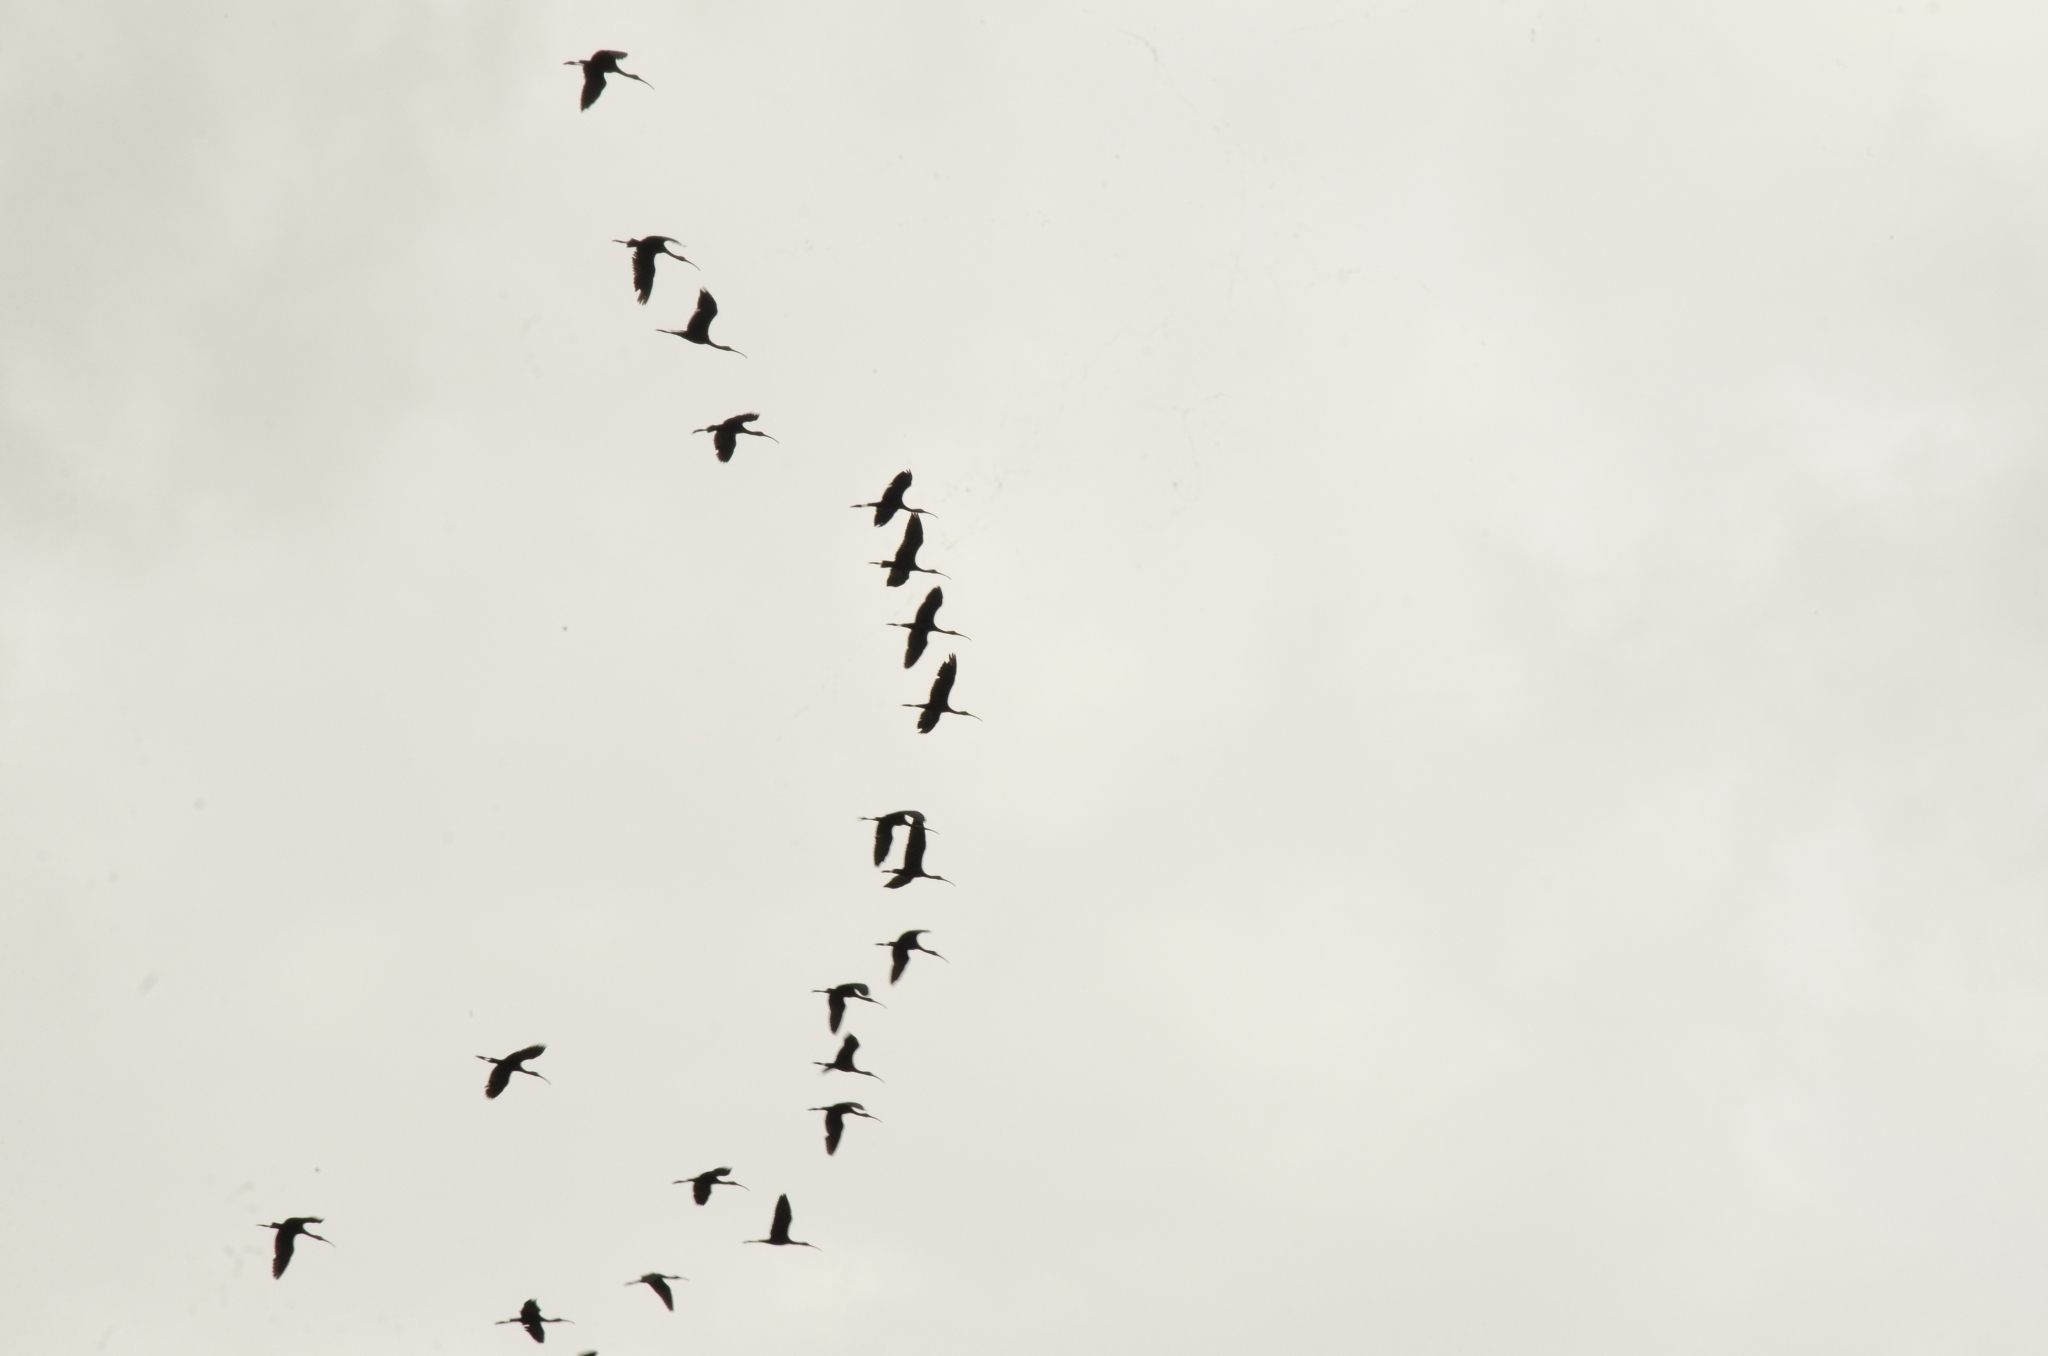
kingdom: Animalia
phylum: Chordata
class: Aves
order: Pelecaniformes
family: Threskiornithidae
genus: Plegadis
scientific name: Plegadis falcinellus
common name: Glossy ibis
